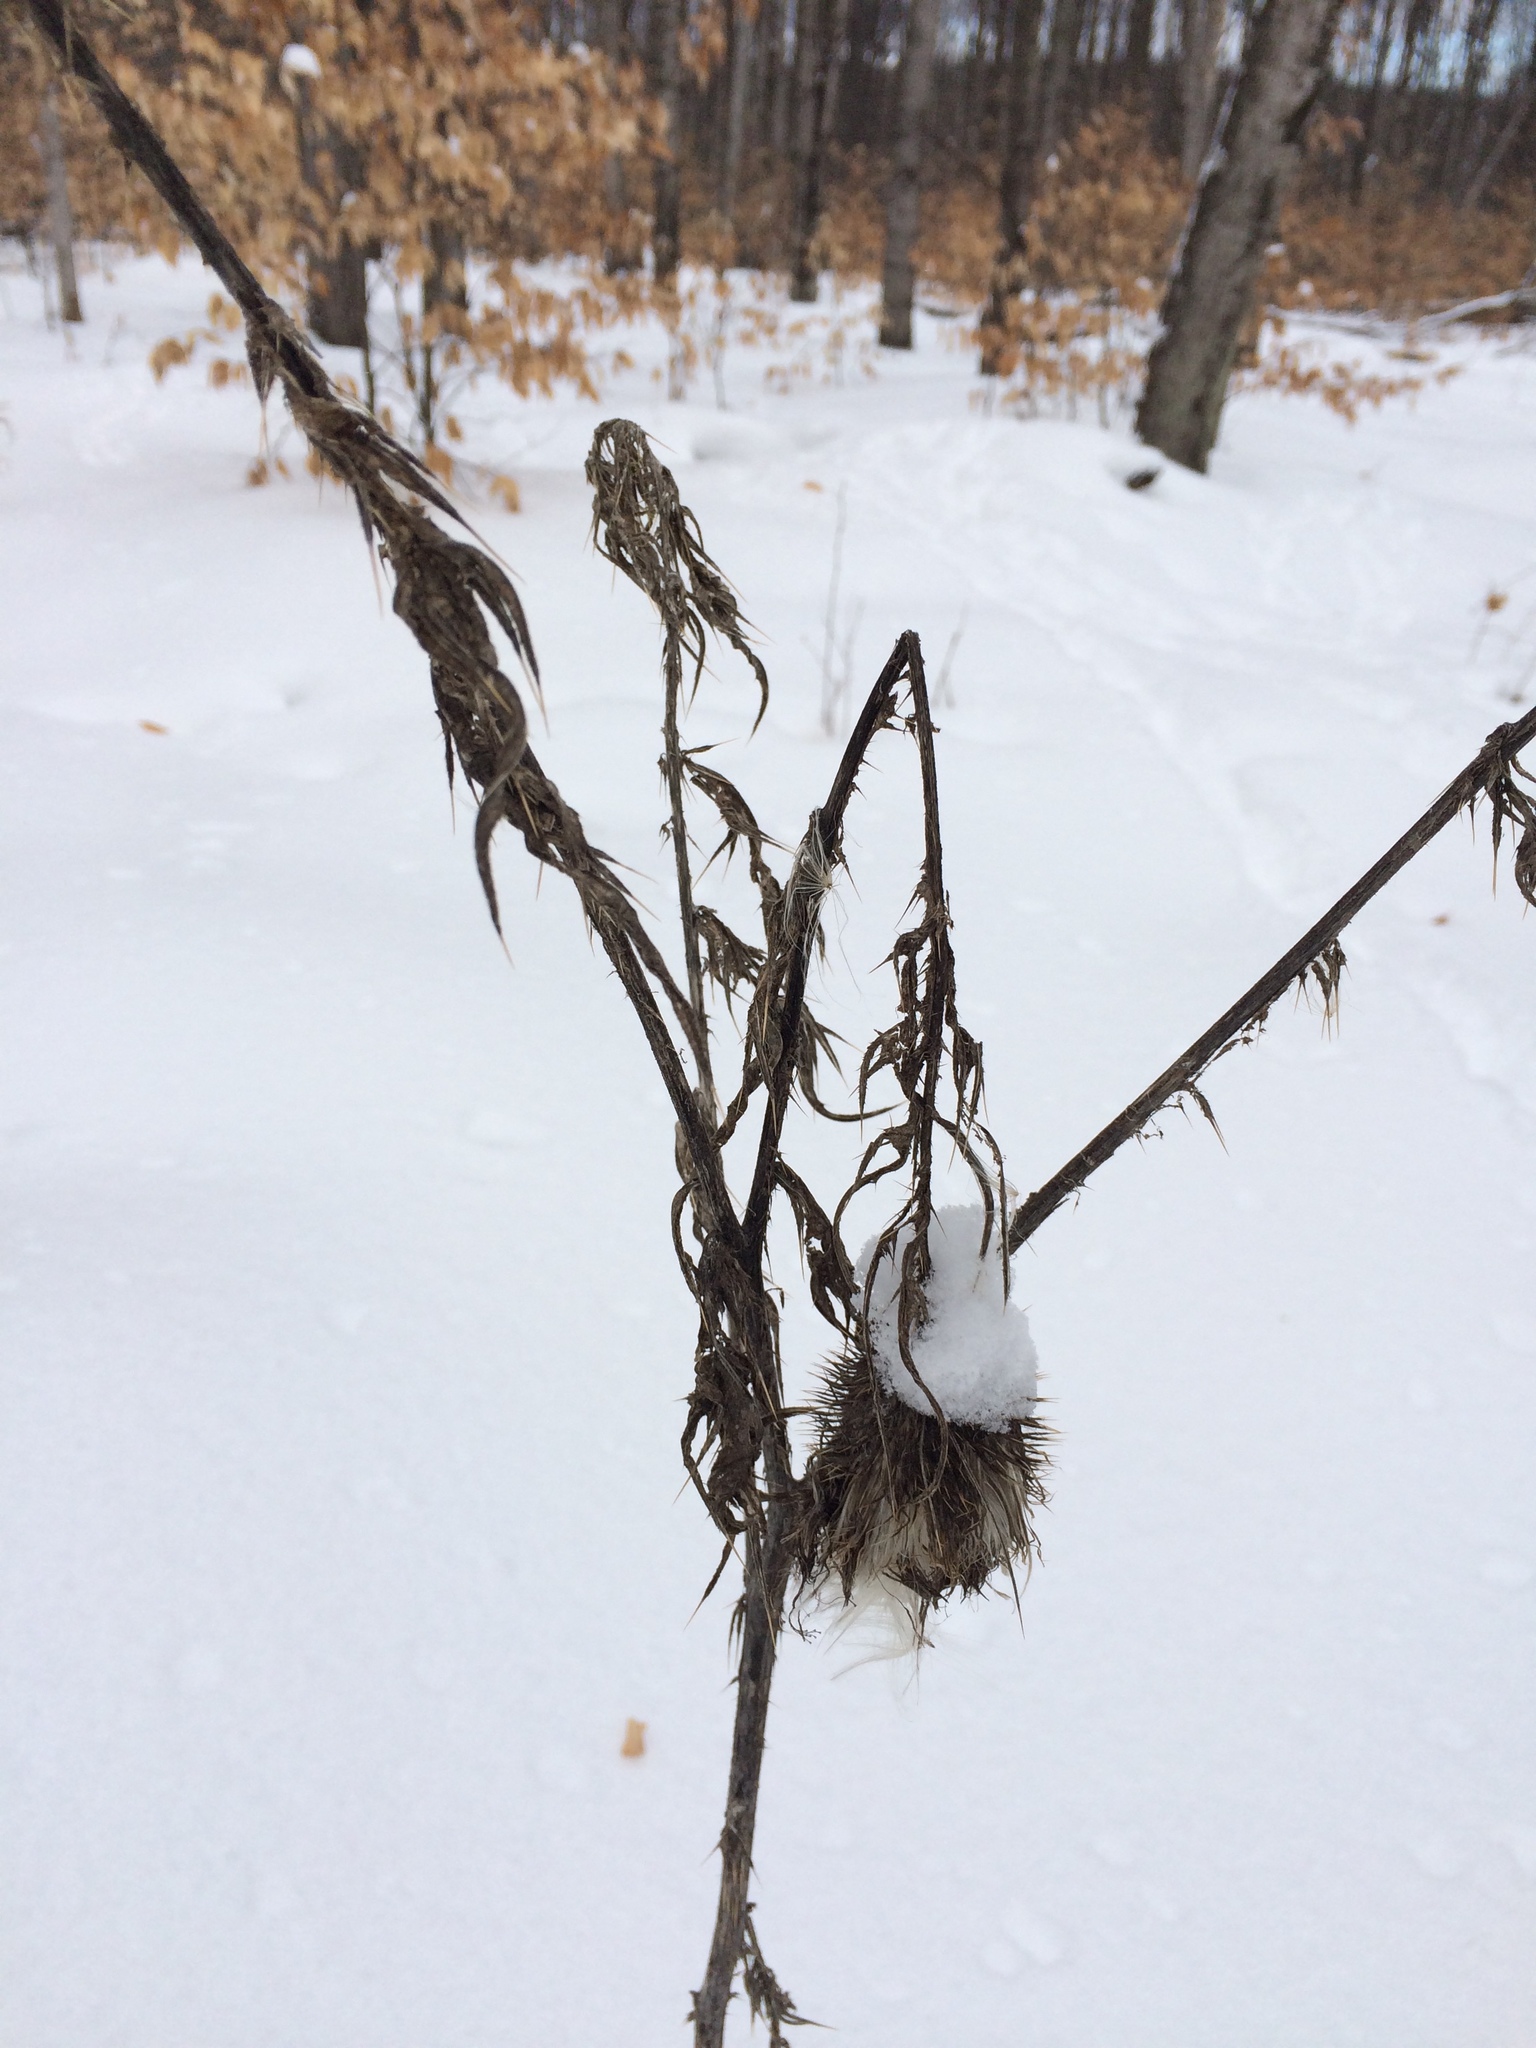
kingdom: Plantae
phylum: Tracheophyta
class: Magnoliopsida
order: Asterales
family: Asteraceae
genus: Cirsium
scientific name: Cirsium vulgare
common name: Bull thistle
